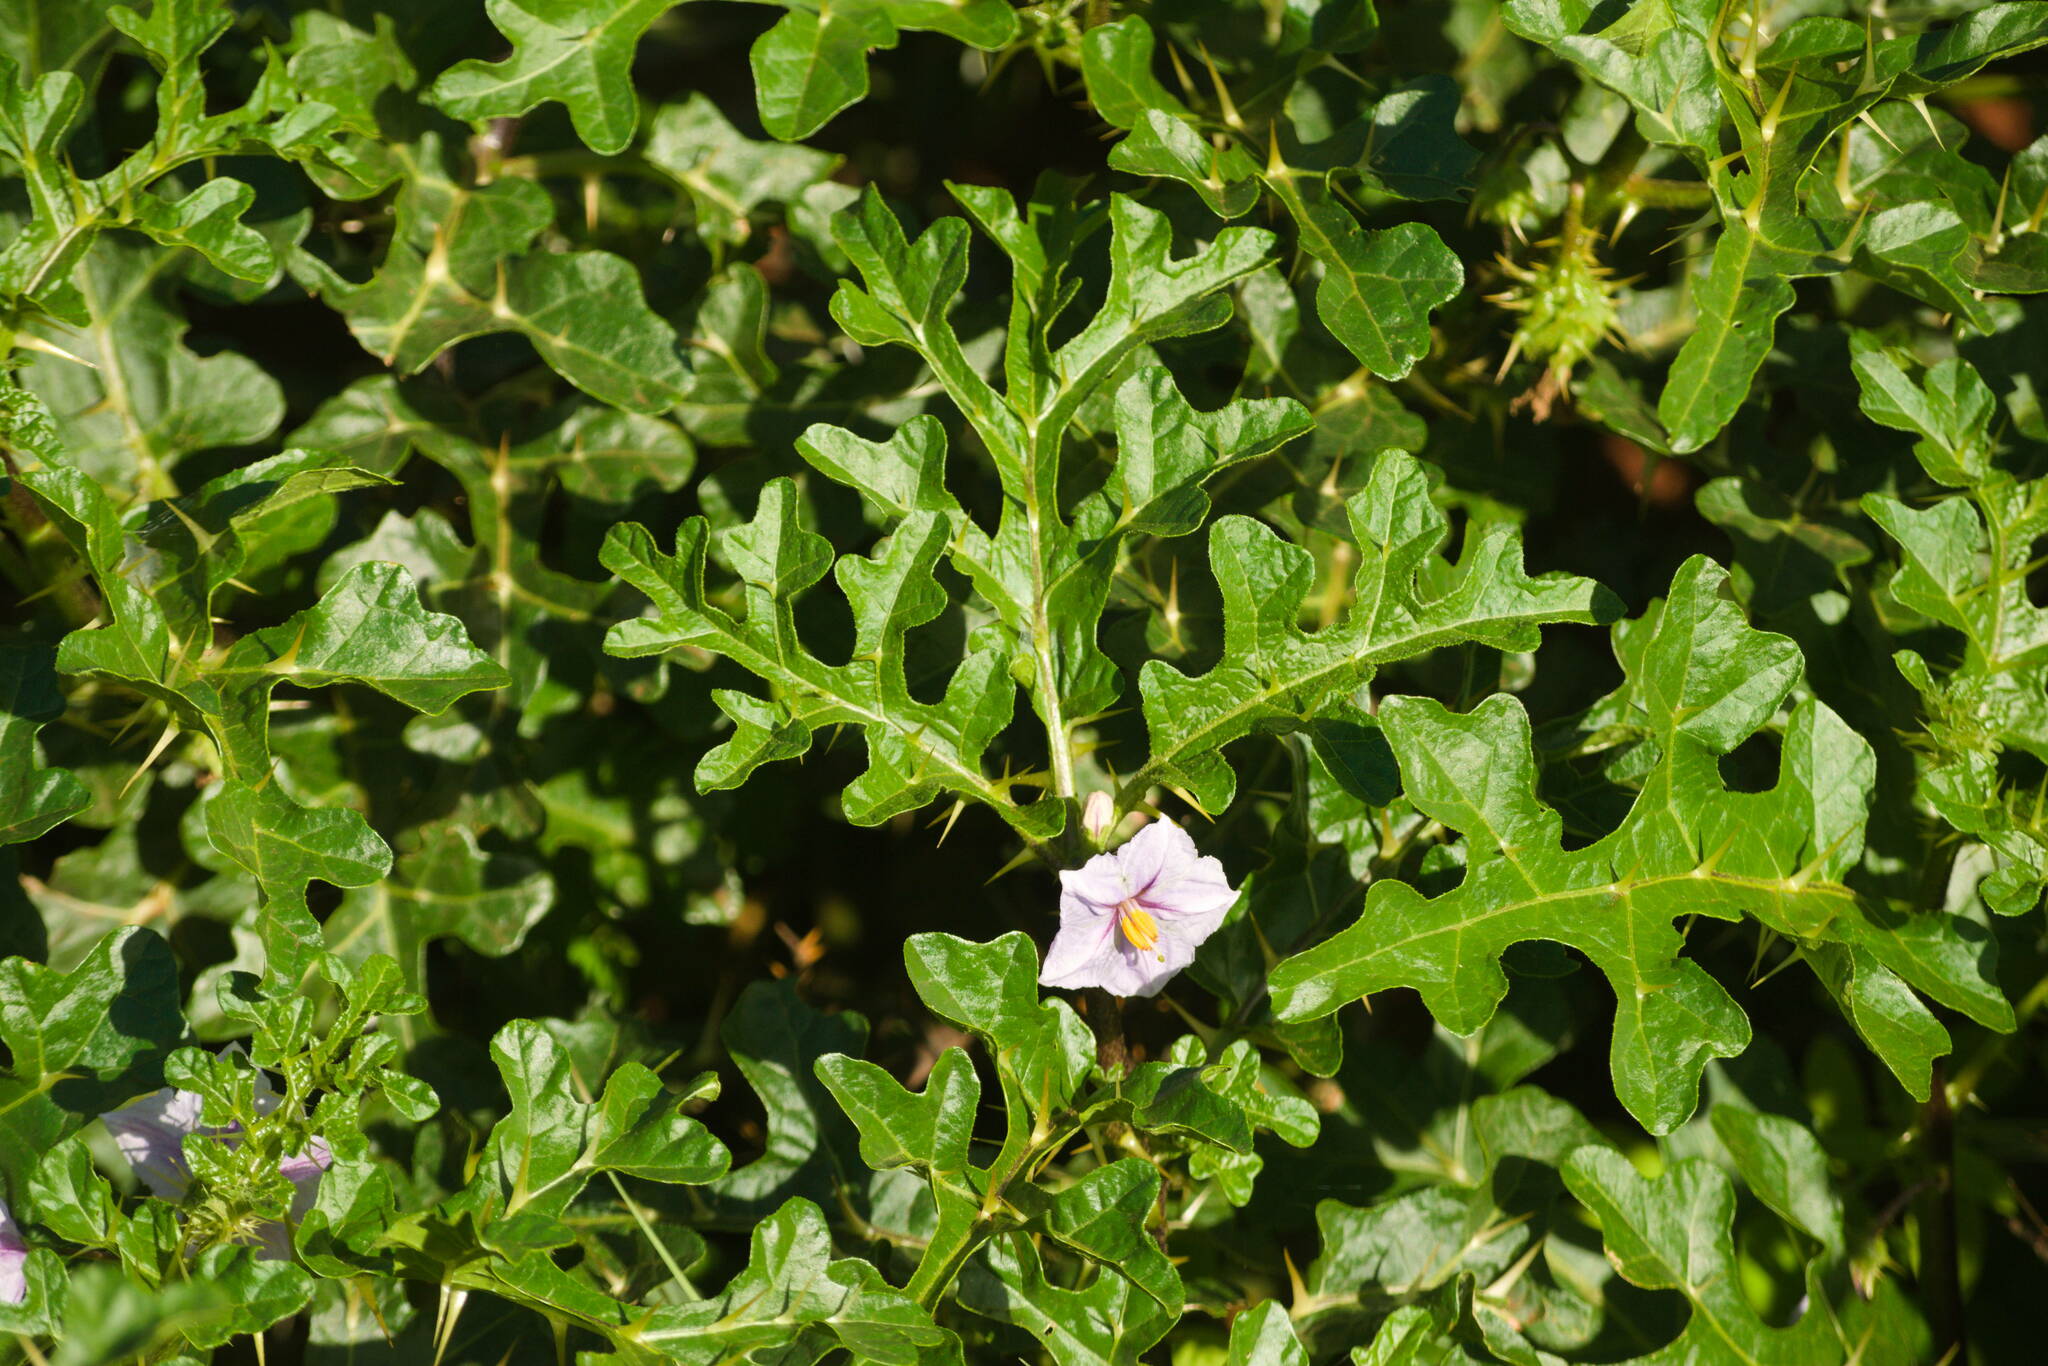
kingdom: Plantae
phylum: Tracheophyta
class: Magnoliopsida
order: Solanales
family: Solanaceae
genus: Solanum
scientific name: Solanum linnaeanum
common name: Nightshade
